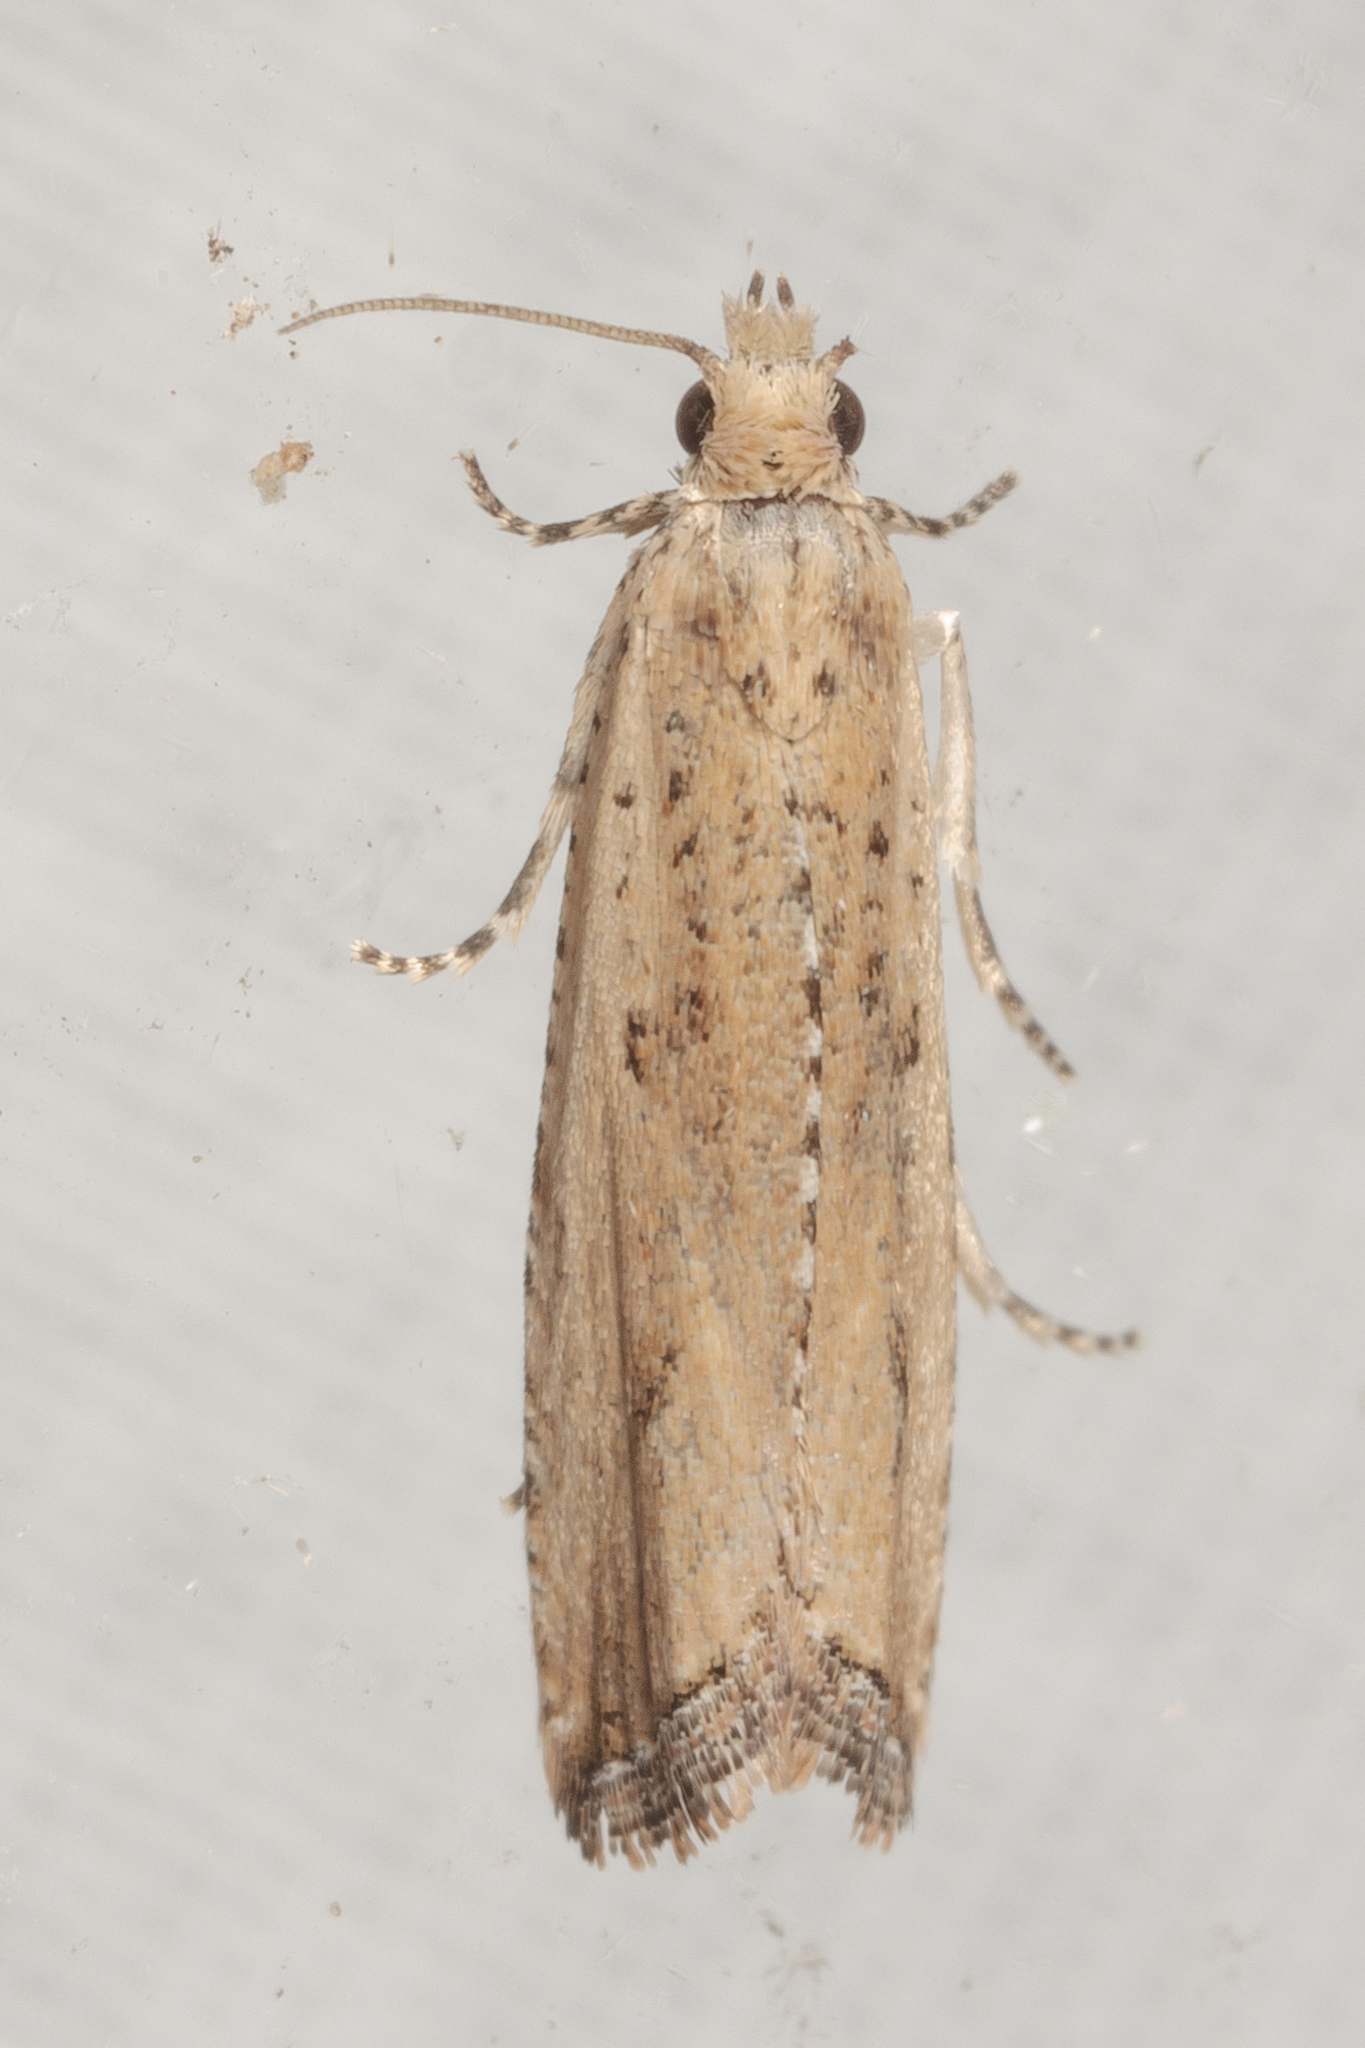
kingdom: Animalia
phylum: Arthropoda
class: Insecta
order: Lepidoptera
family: Tortricidae
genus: Bactra
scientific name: Bactra verutana
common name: Javelin moth
